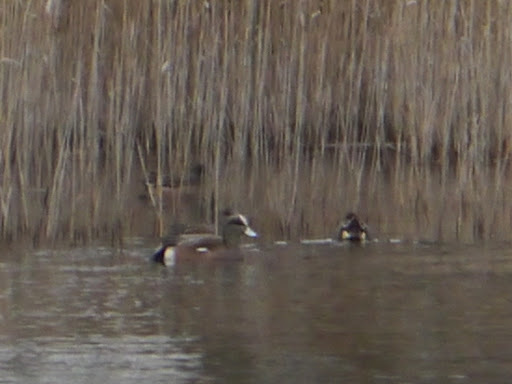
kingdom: Animalia
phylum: Chordata
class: Aves
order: Anseriformes
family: Anatidae
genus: Mareca
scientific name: Mareca americana
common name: American wigeon
